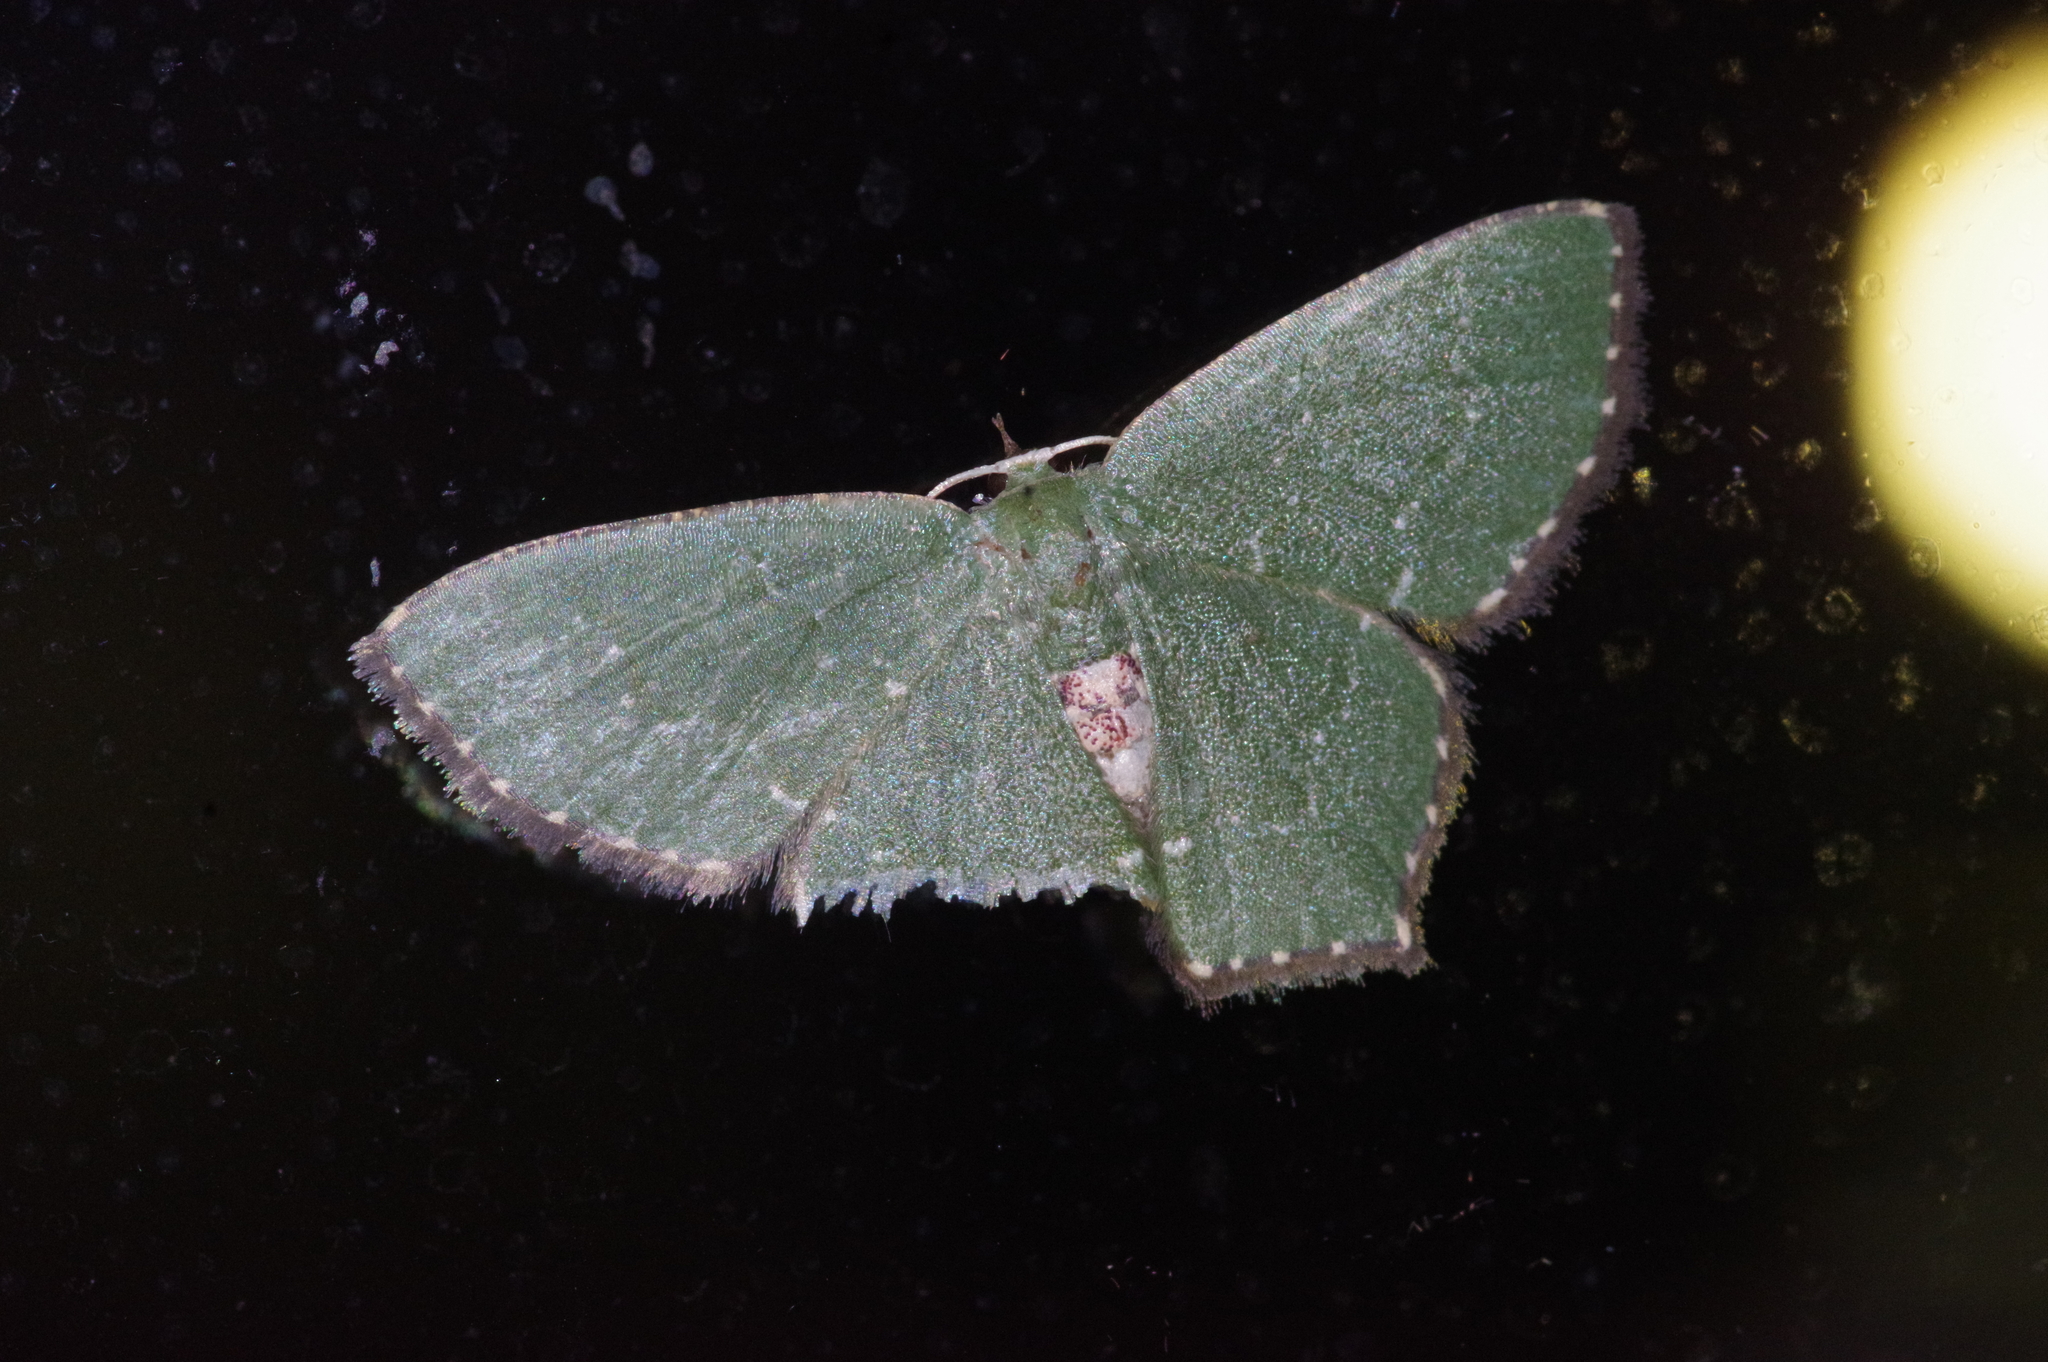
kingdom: Animalia
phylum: Arthropoda
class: Insecta
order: Lepidoptera
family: Geometridae
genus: Hemithea
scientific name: Hemithea tritonaria
